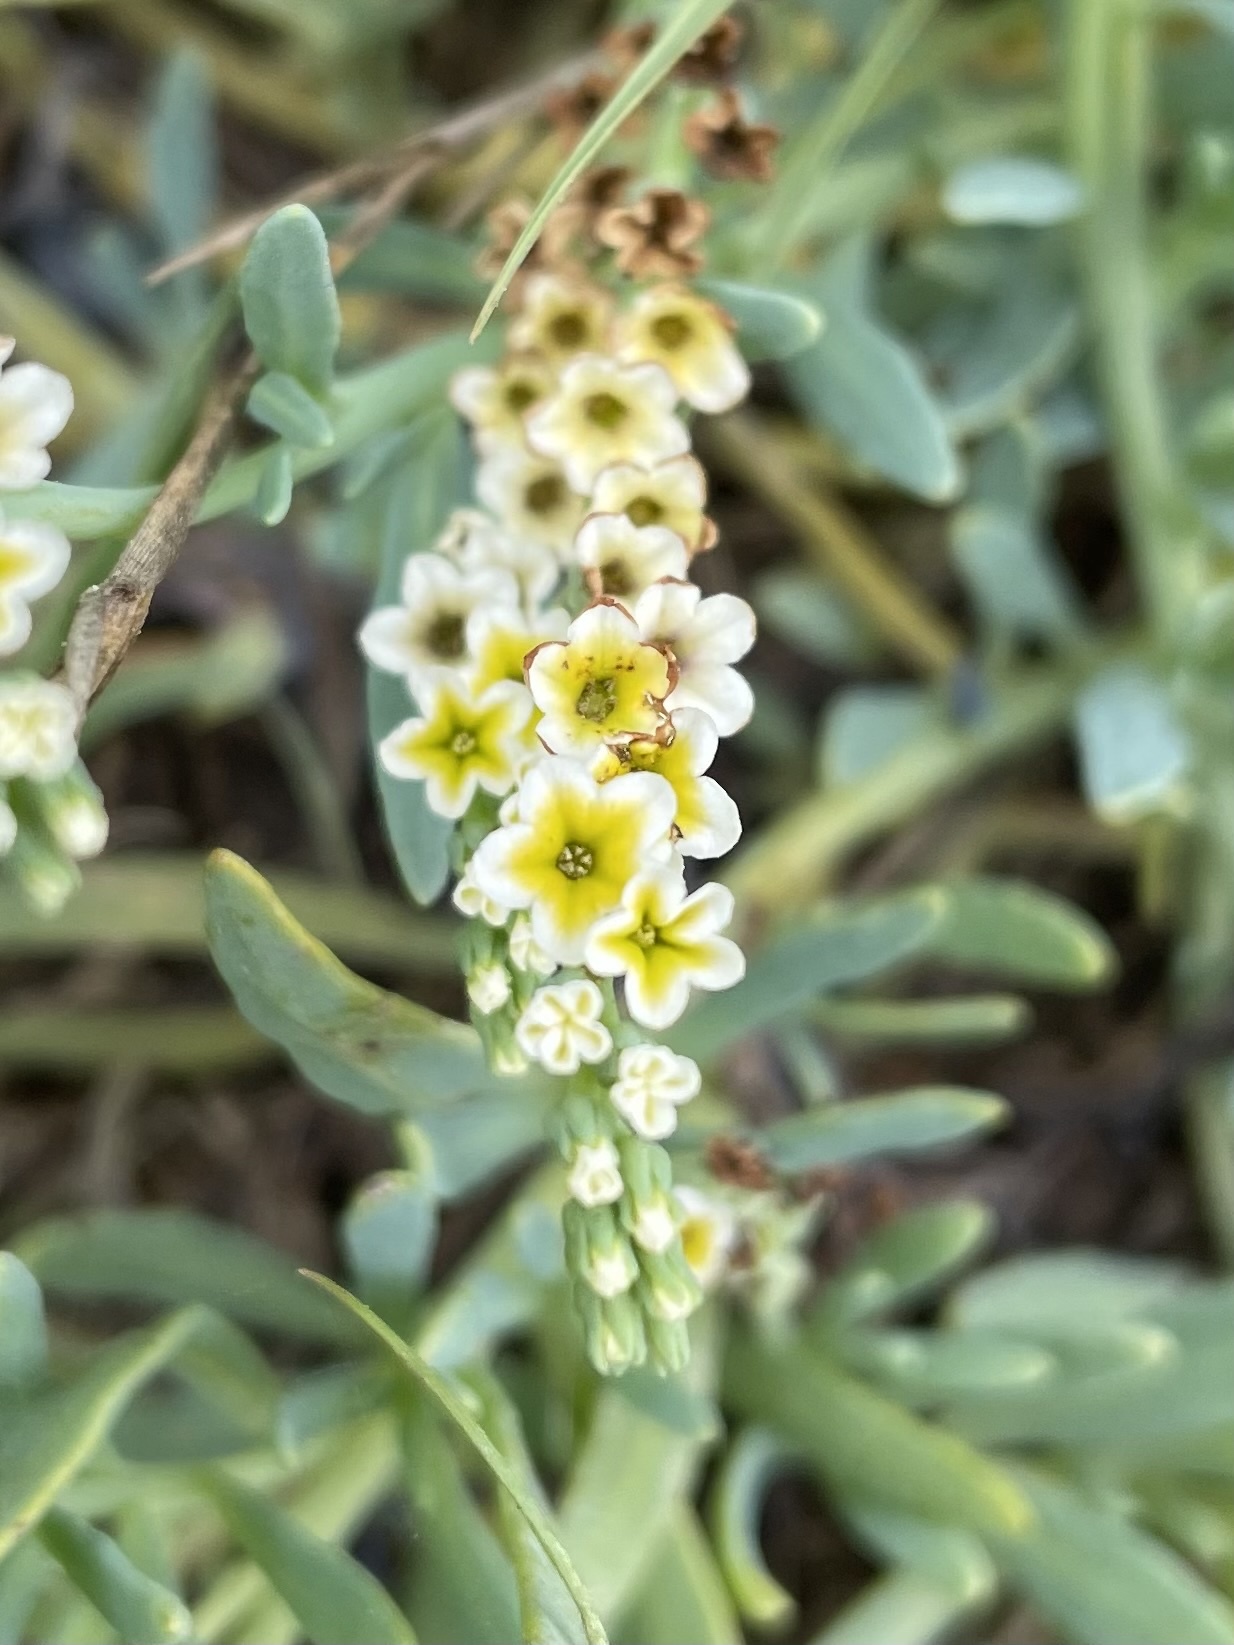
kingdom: Plantae
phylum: Tracheophyta
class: Magnoliopsida
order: Boraginales
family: Heliotropiaceae
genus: Heliotropium
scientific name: Heliotropium curassavicum
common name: Seaside heliotrope
